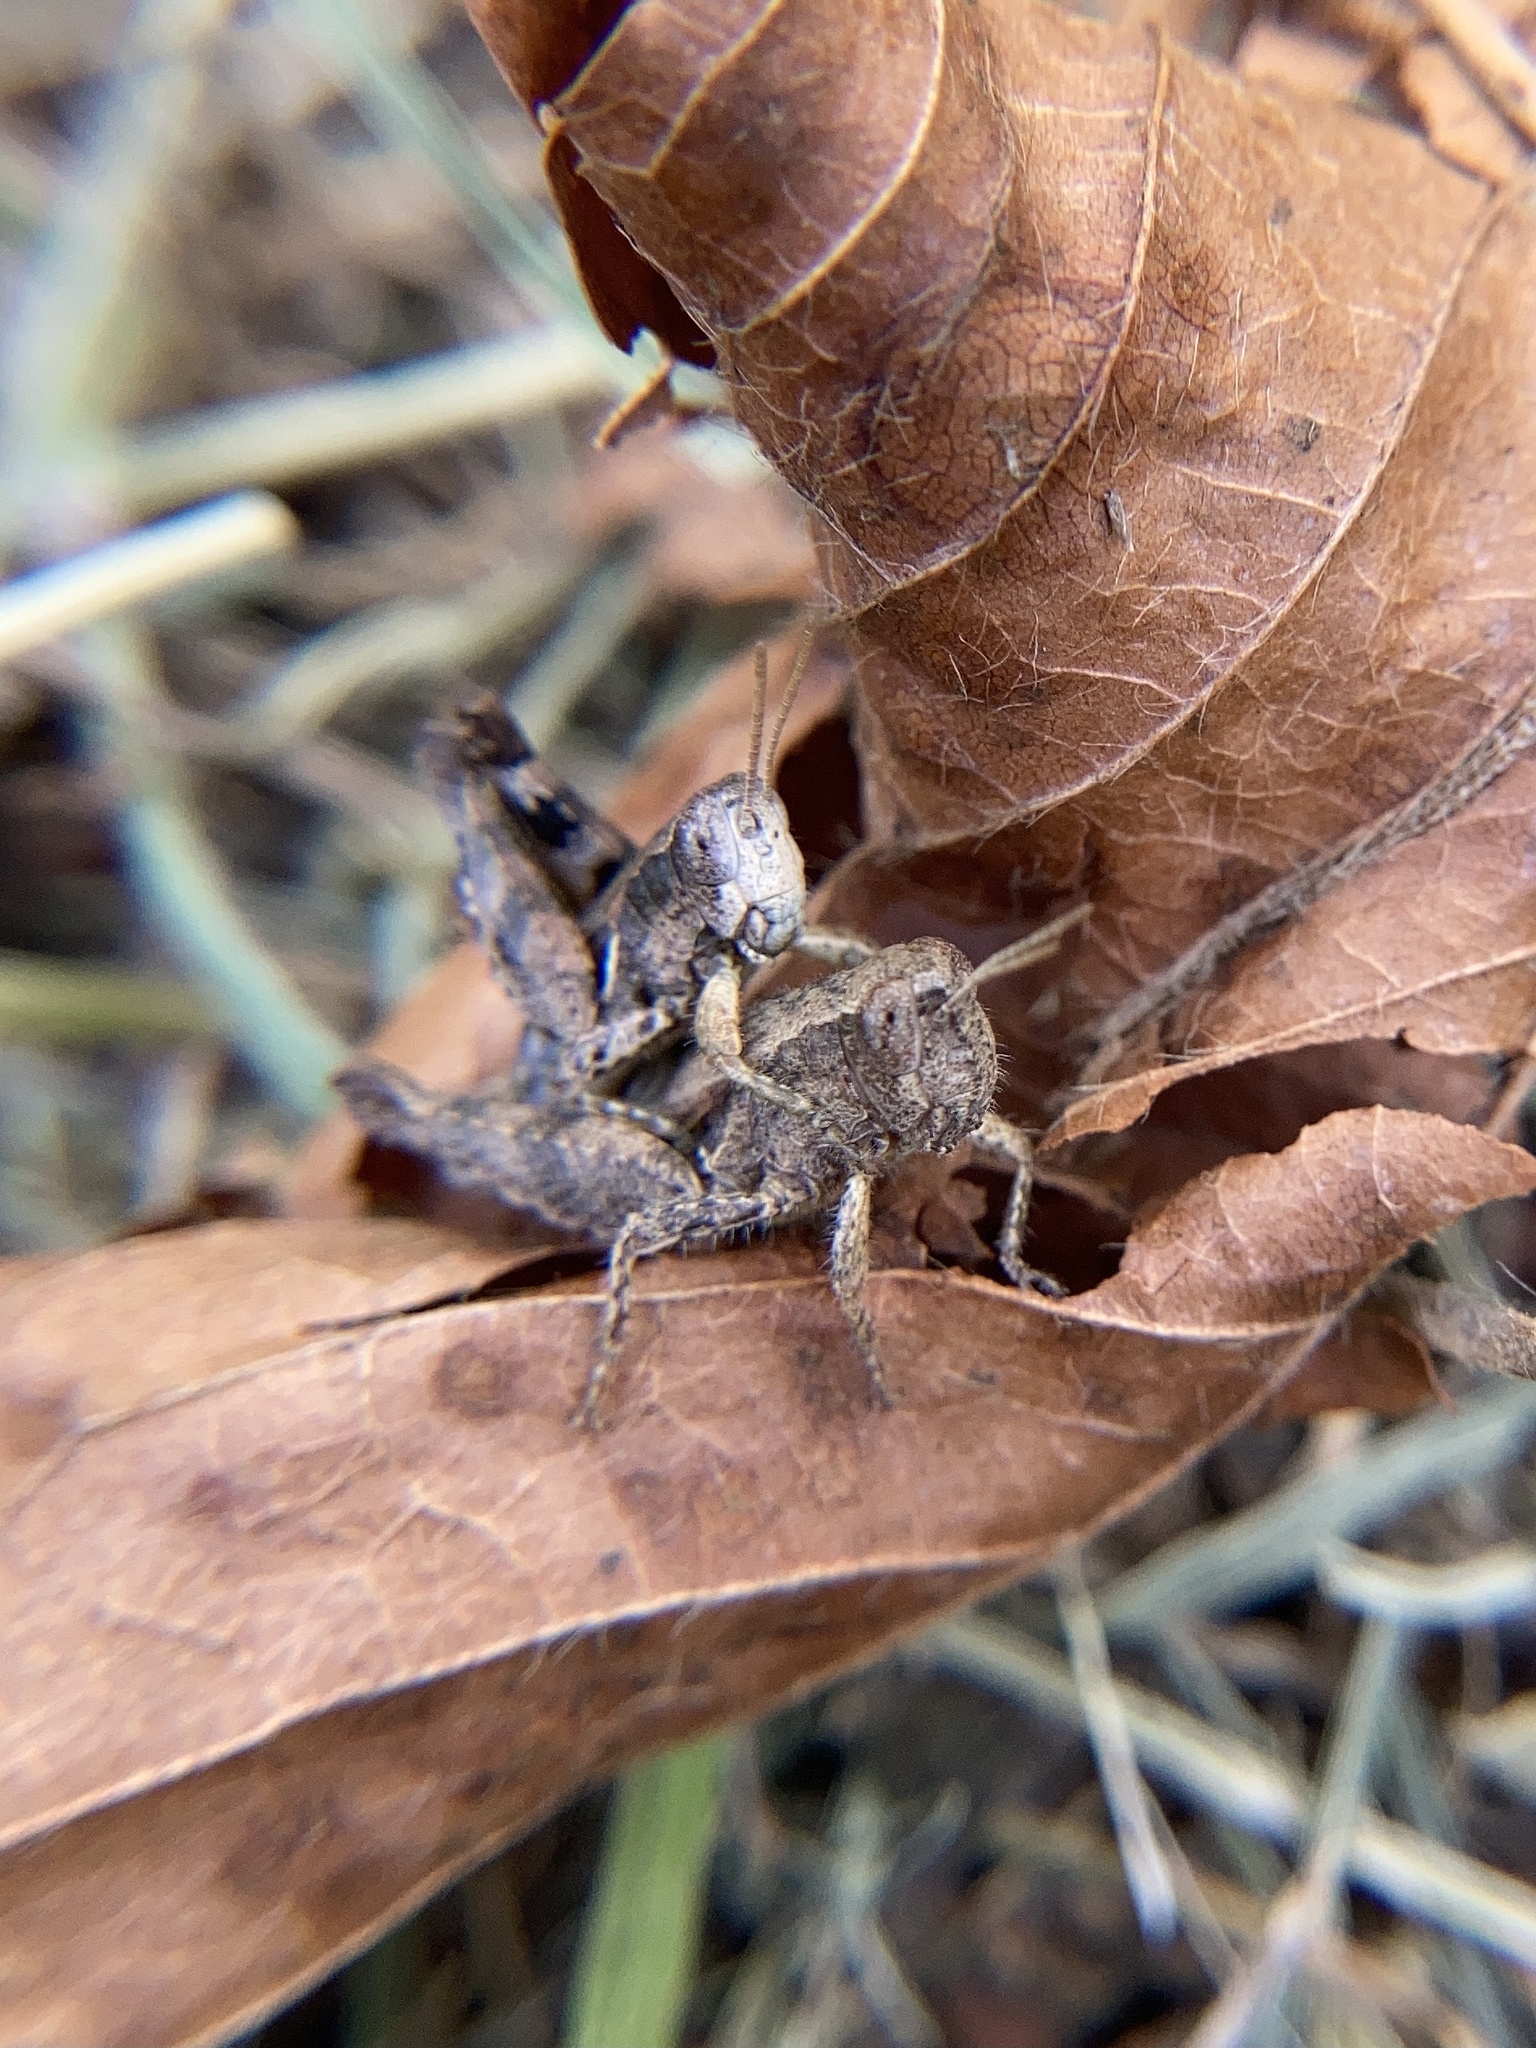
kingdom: Animalia
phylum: Arthropoda
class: Insecta
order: Orthoptera
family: Acrididae
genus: Pezotettix
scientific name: Pezotettix giornae
